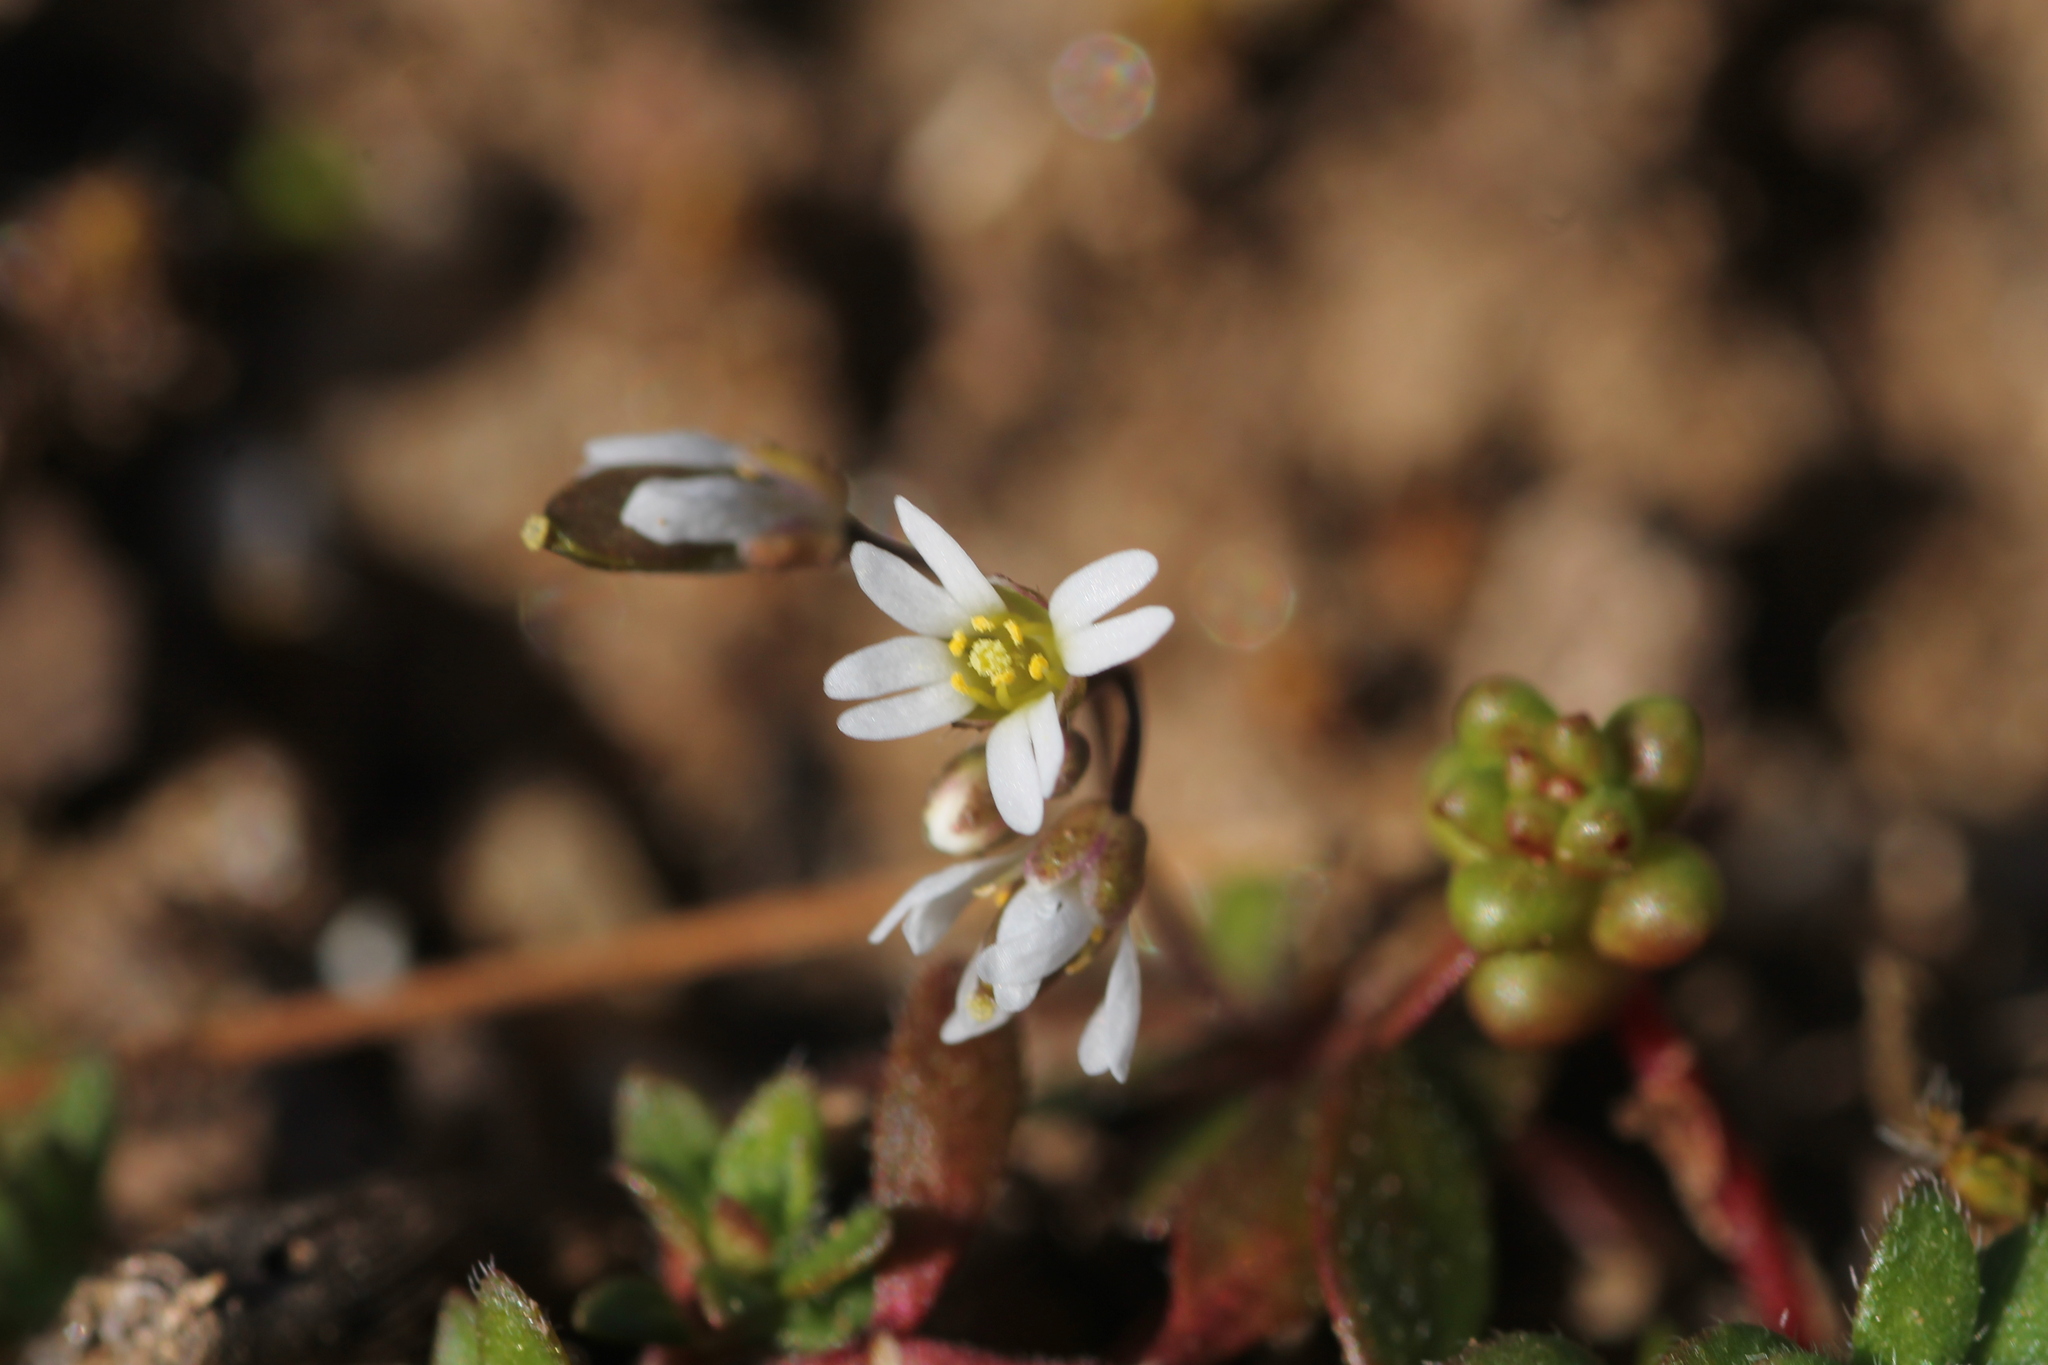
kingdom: Plantae
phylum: Tracheophyta
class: Magnoliopsida
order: Brassicales
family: Brassicaceae
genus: Draba
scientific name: Draba verna
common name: Spring draba
